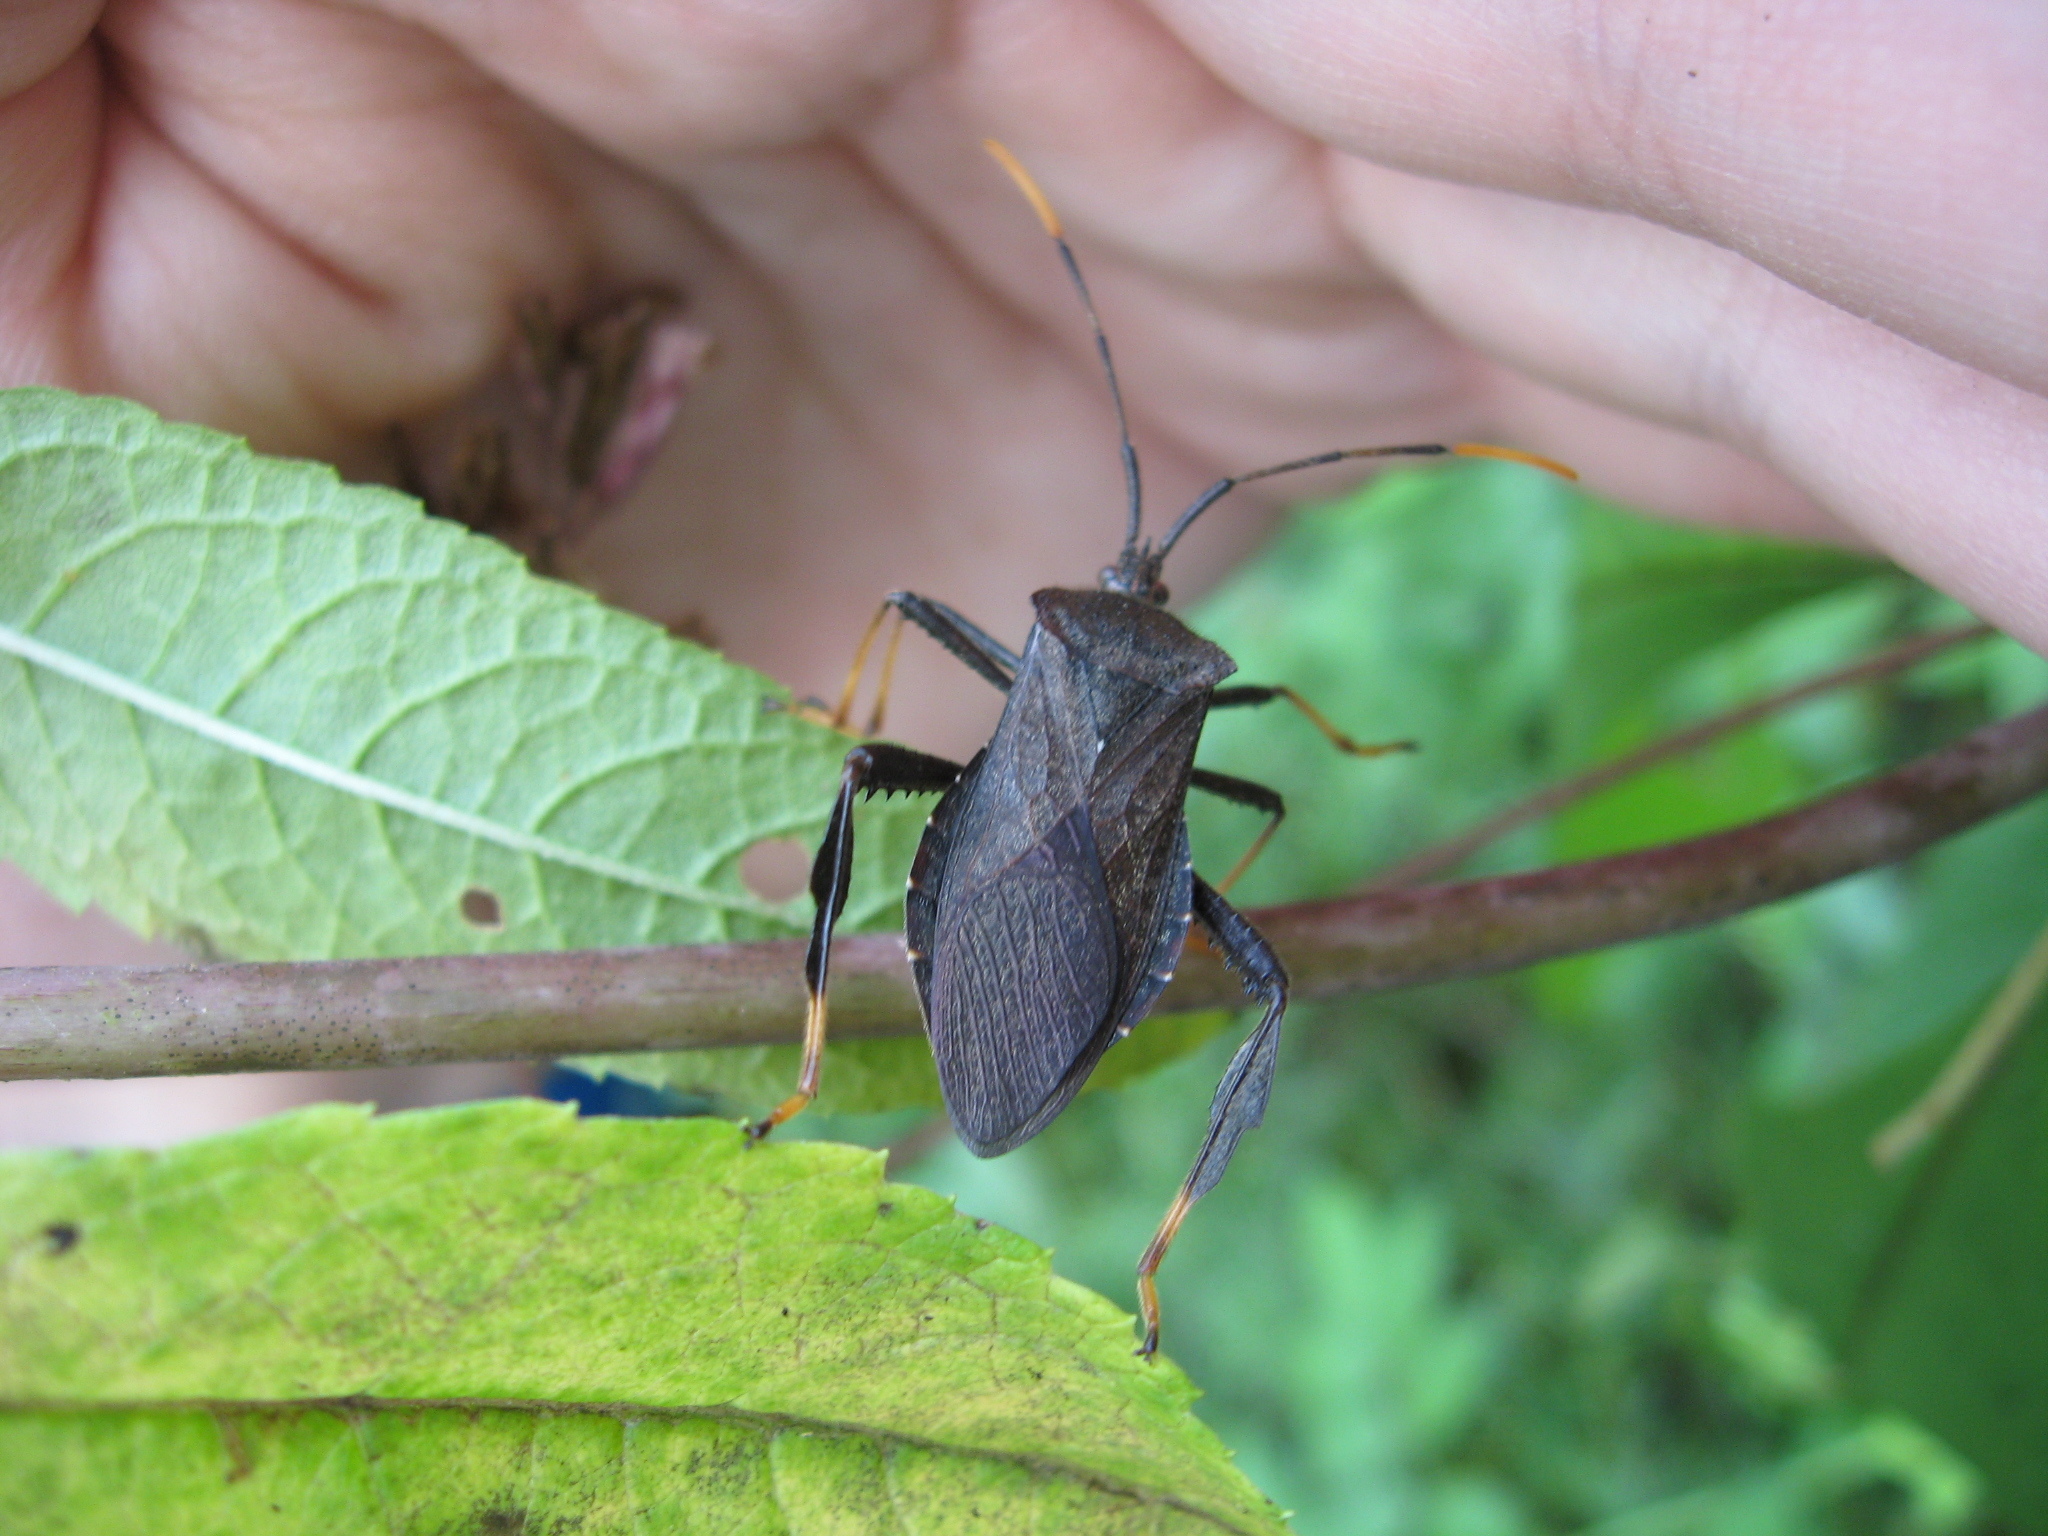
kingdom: Animalia
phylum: Arthropoda
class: Insecta
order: Hemiptera
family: Coreidae
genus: Acanthocephala
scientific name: Acanthocephala terminalis
